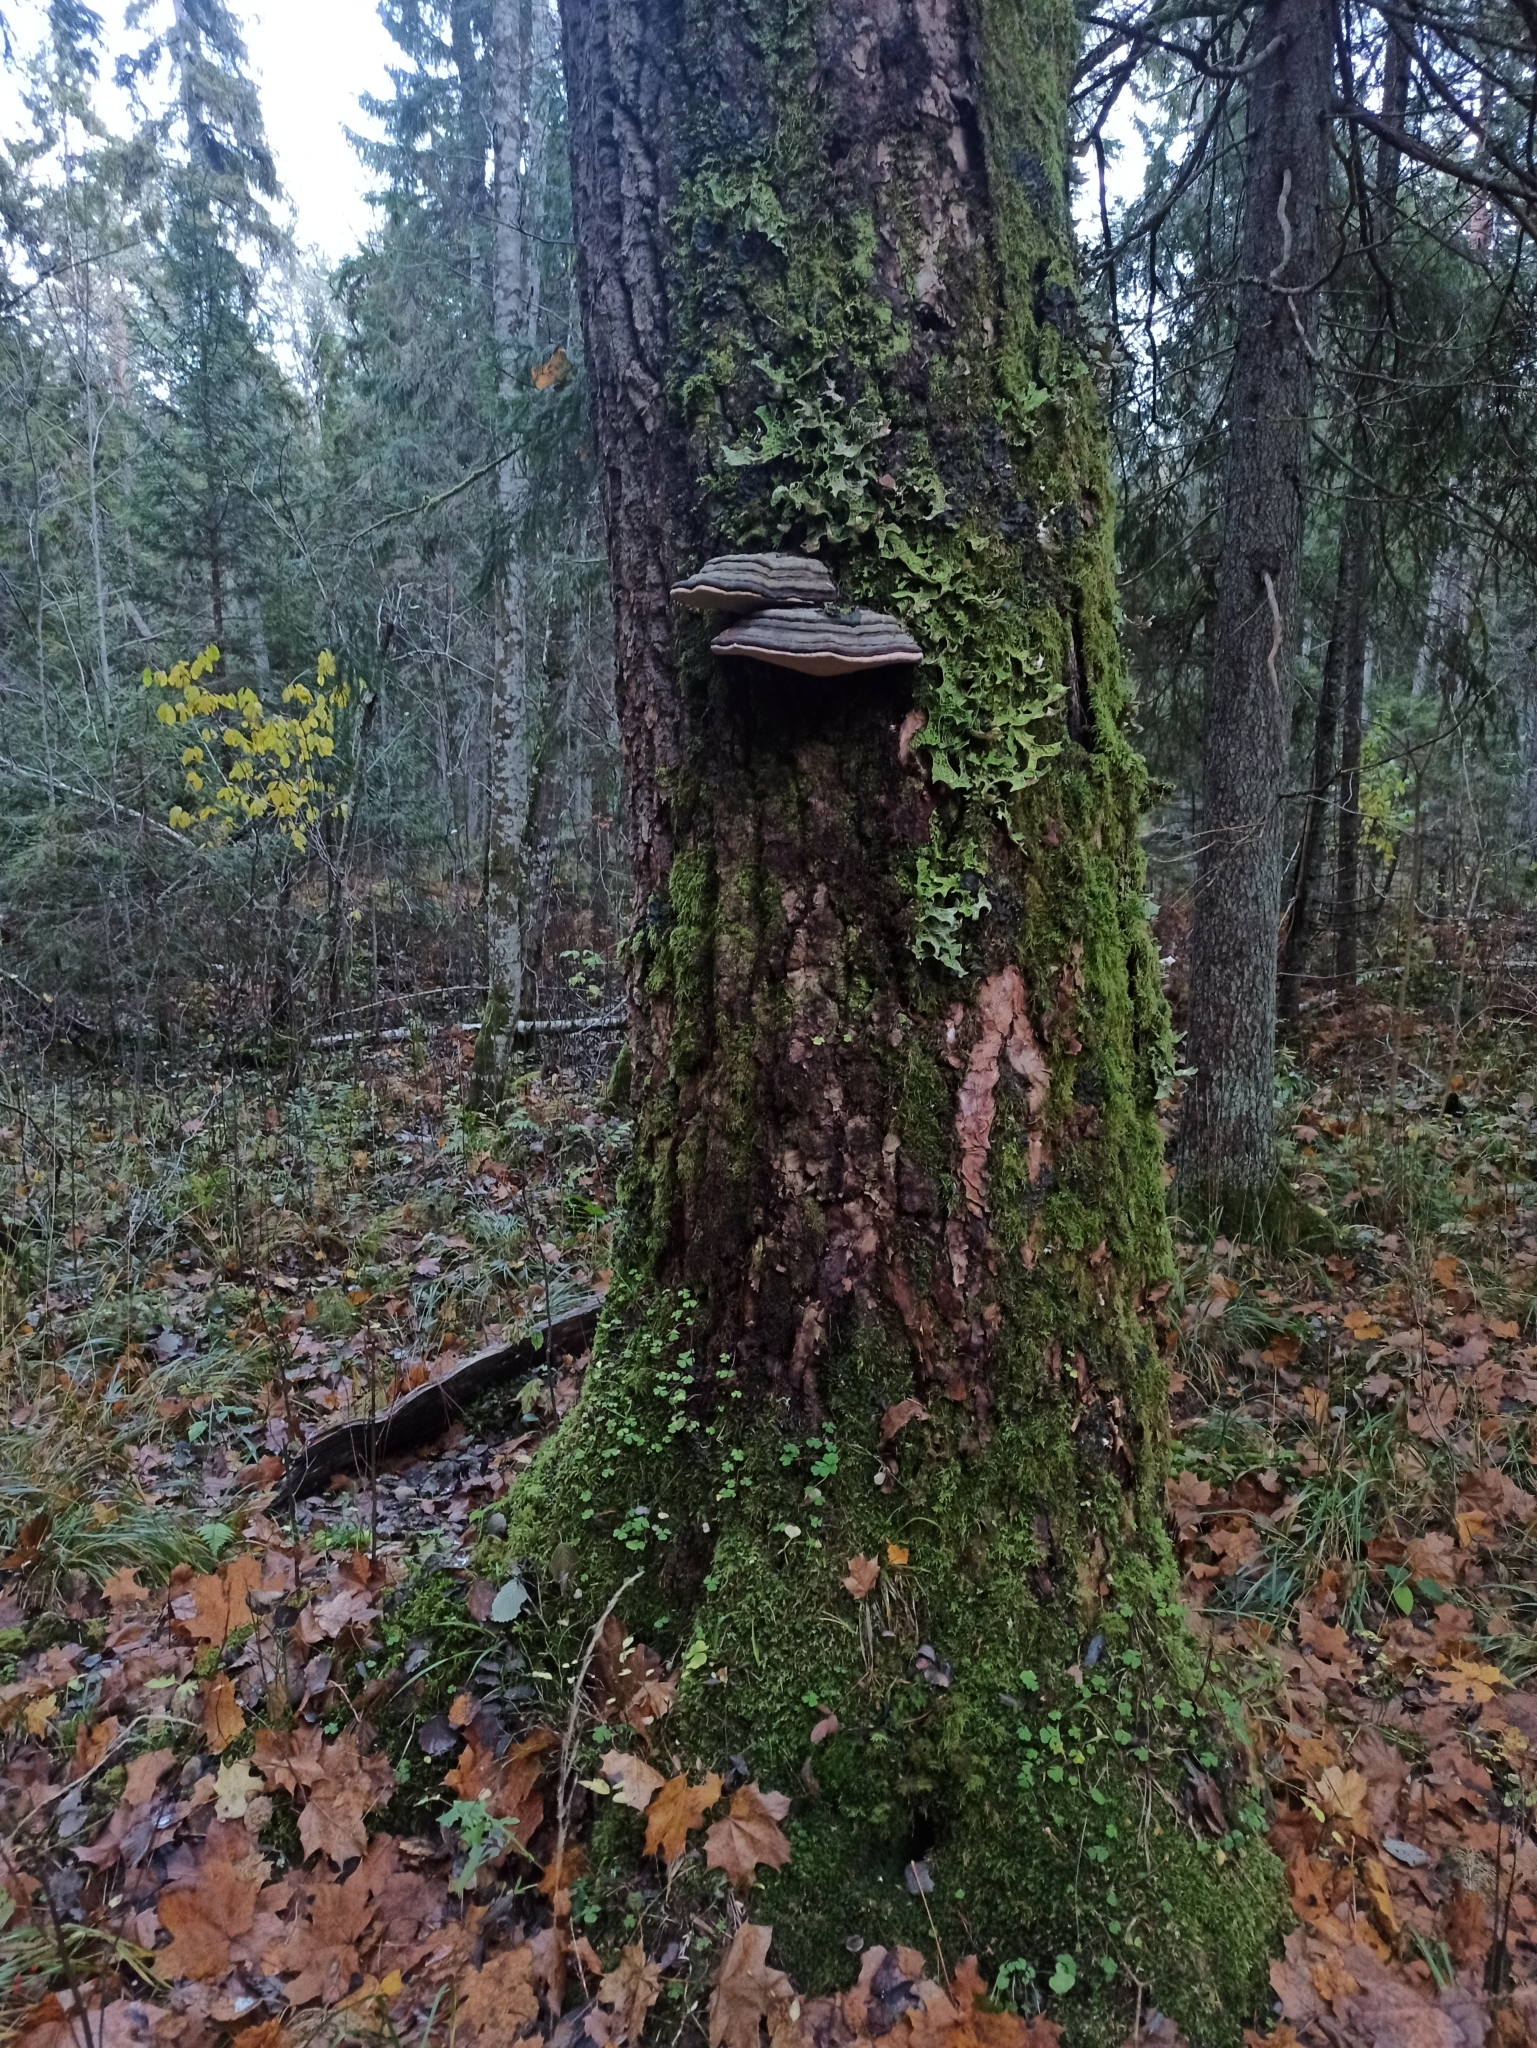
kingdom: Fungi
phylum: Ascomycota
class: Lecanoromycetes
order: Peltigerales
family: Lobariaceae
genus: Lobaria
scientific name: Lobaria pulmonaria
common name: Lungwort
